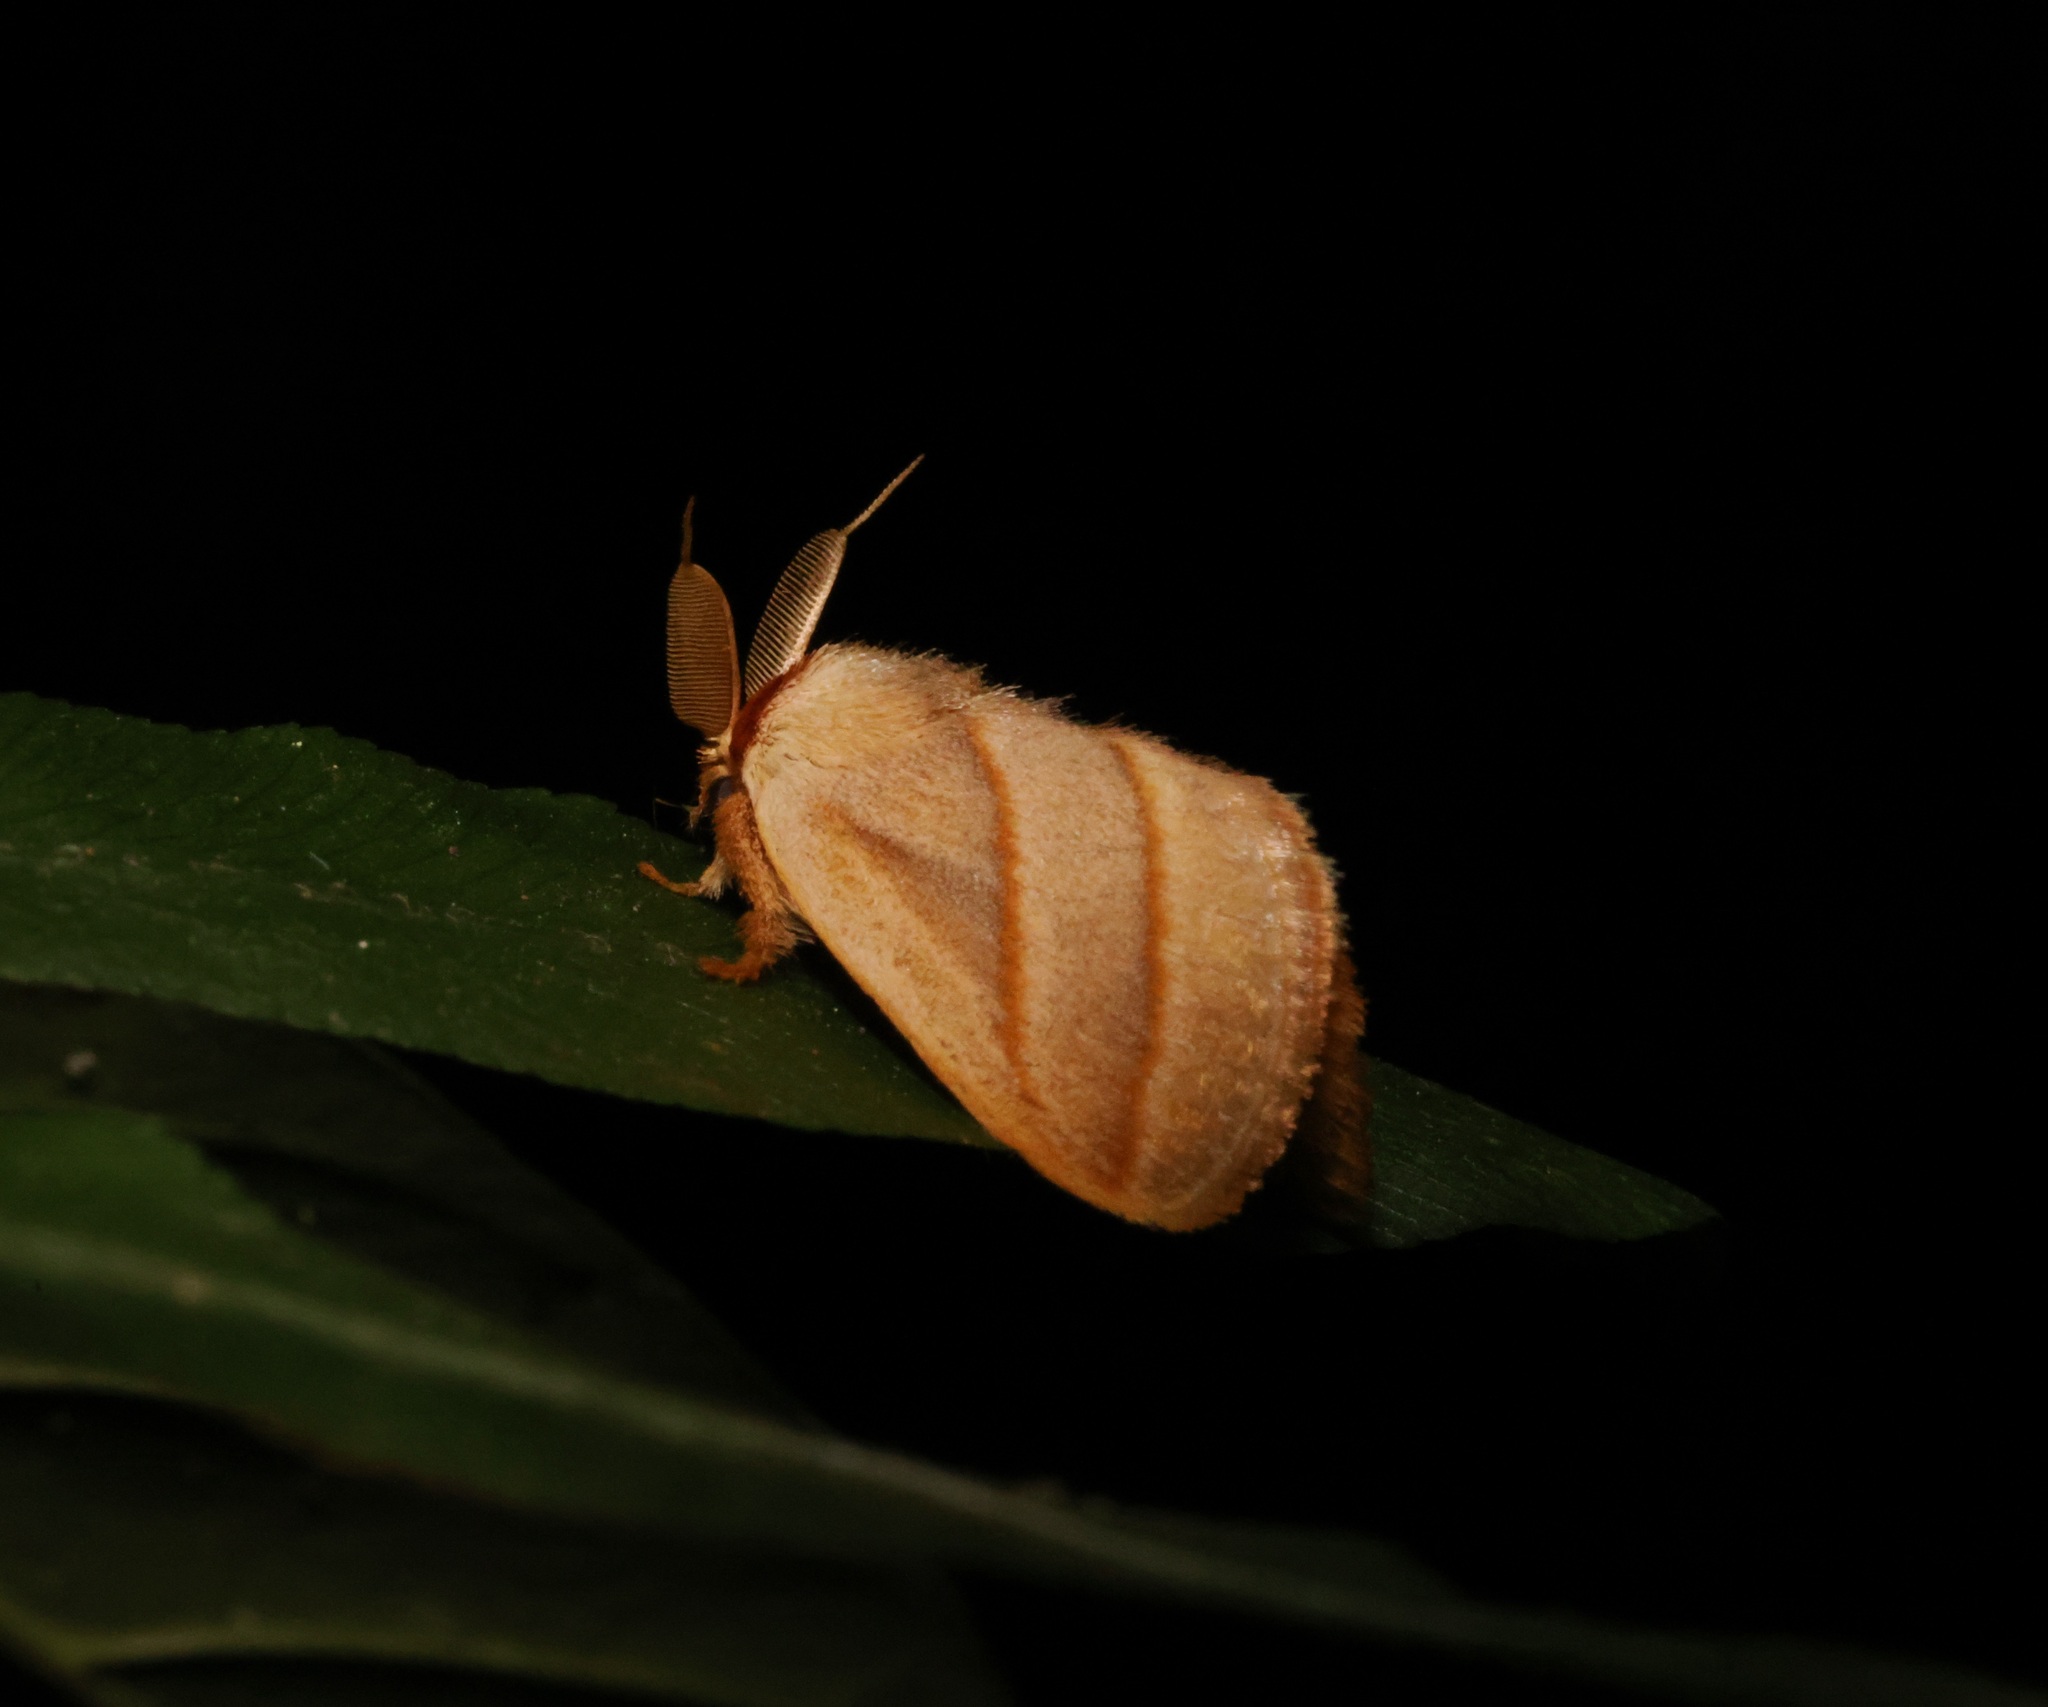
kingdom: Animalia
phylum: Arthropoda
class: Insecta
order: Lepidoptera
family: Limacodidae
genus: Cania
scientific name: Cania bilinea
